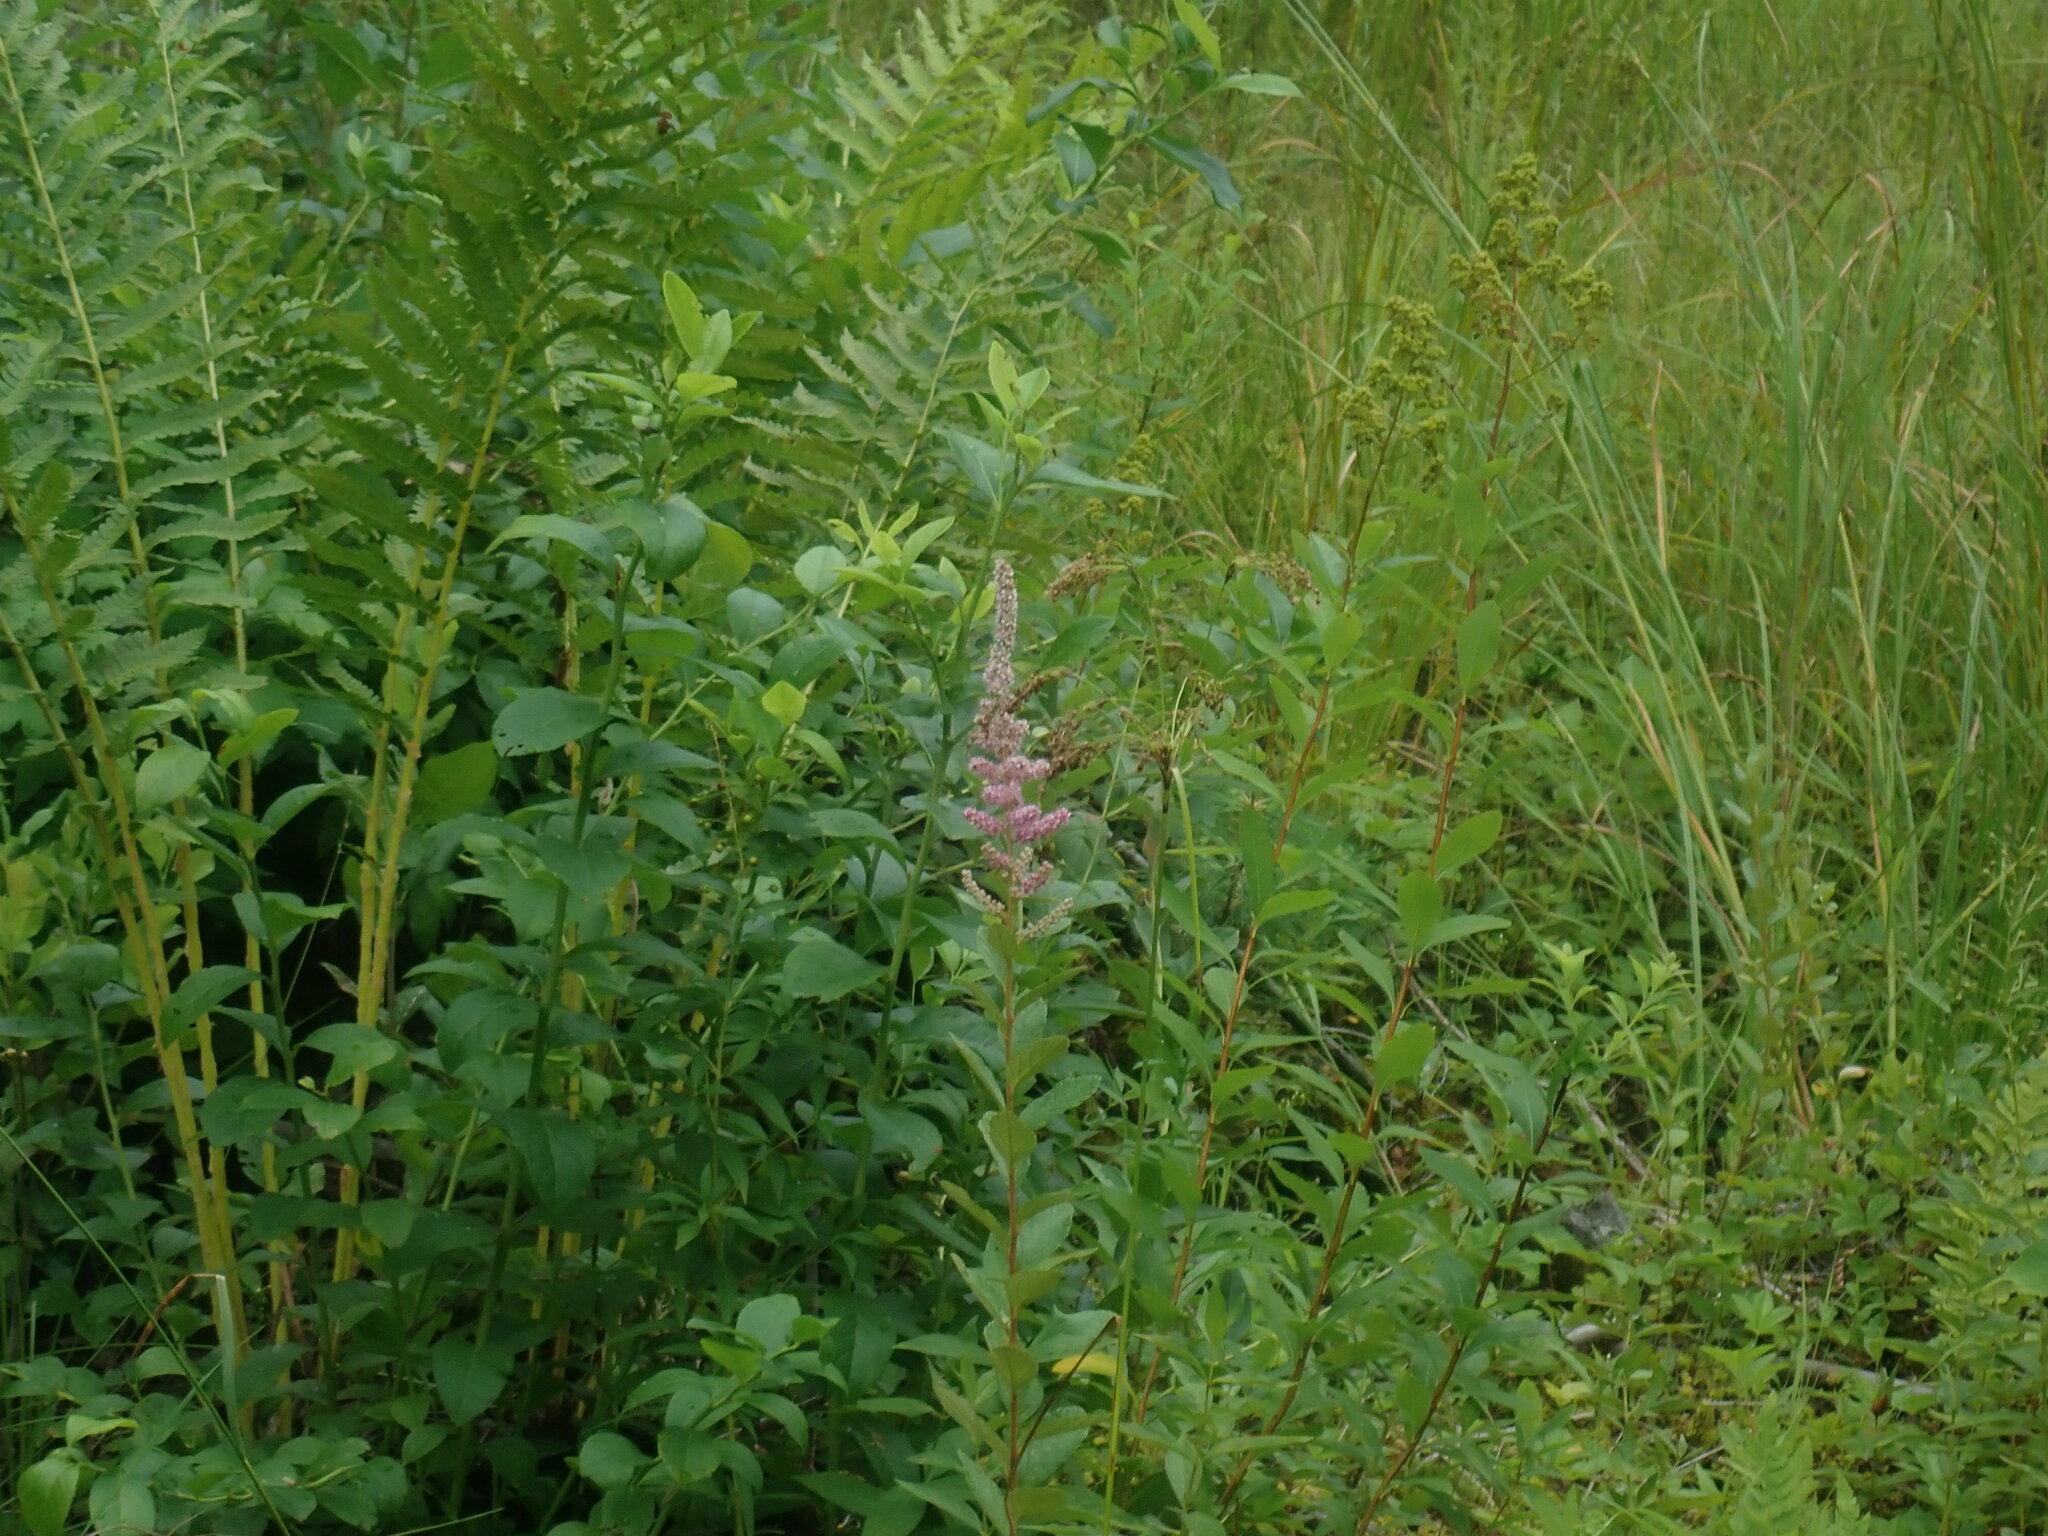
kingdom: Plantae
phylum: Tracheophyta
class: Magnoliopsida
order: Rosales
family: Rosaceae
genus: Spiraea
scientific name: Spiraea tomentosa
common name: Hardhack
